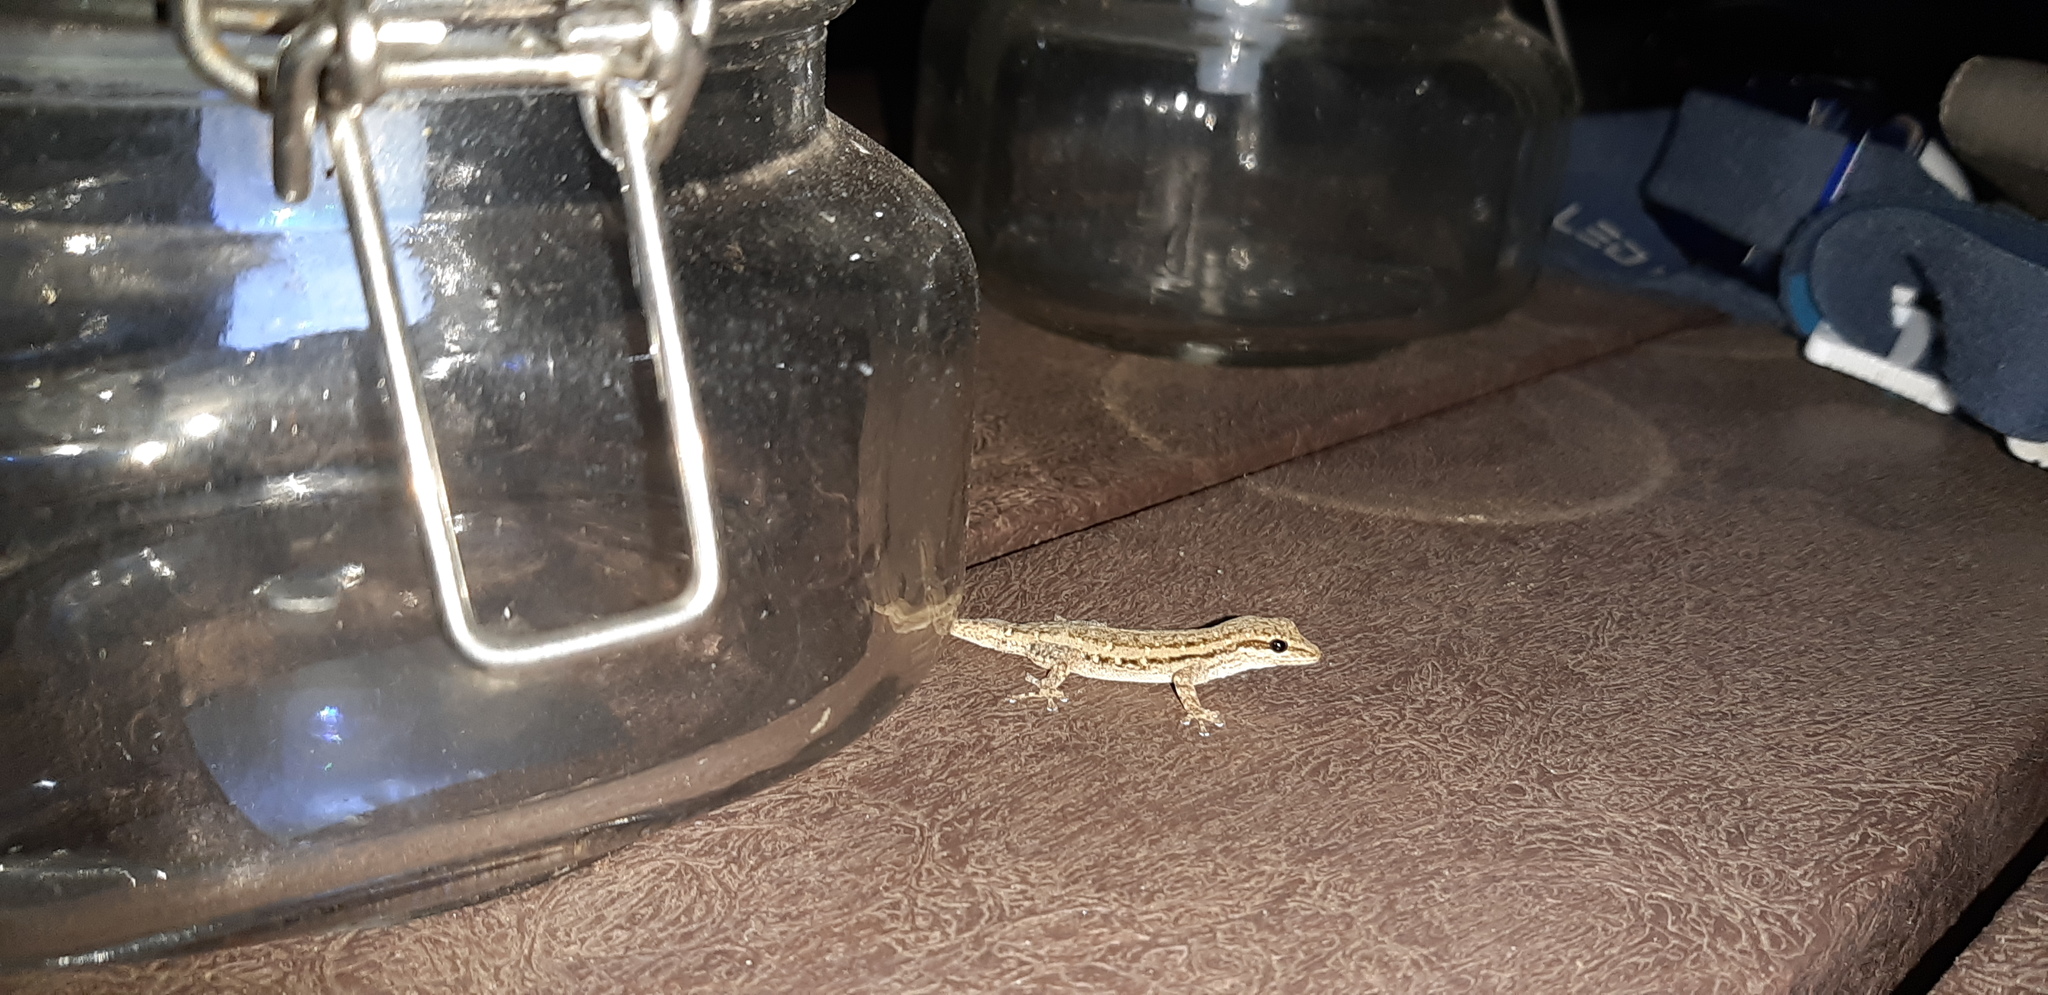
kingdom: Animalia
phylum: Chordata
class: Squamata
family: Gekkonidae
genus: Lygodactylus
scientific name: Lygodactylus capensis
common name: Cape dwarf gecko
